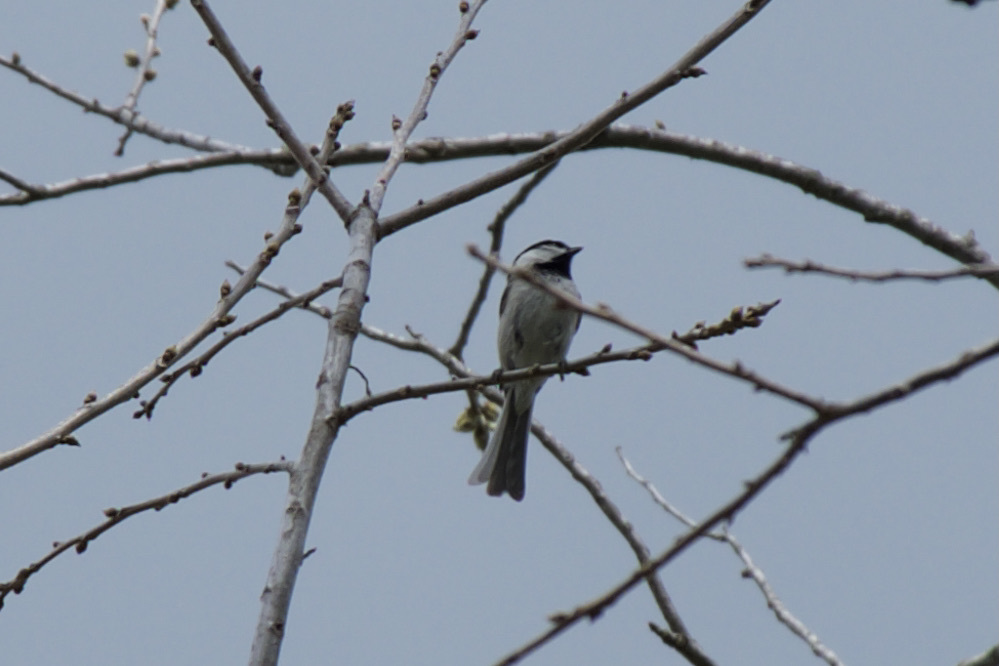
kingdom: Animalia
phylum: Chordata
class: Aves
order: Passeriformes
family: Paridae
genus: Poecile
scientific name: Poecile carolinensis
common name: Carolina chickadee
